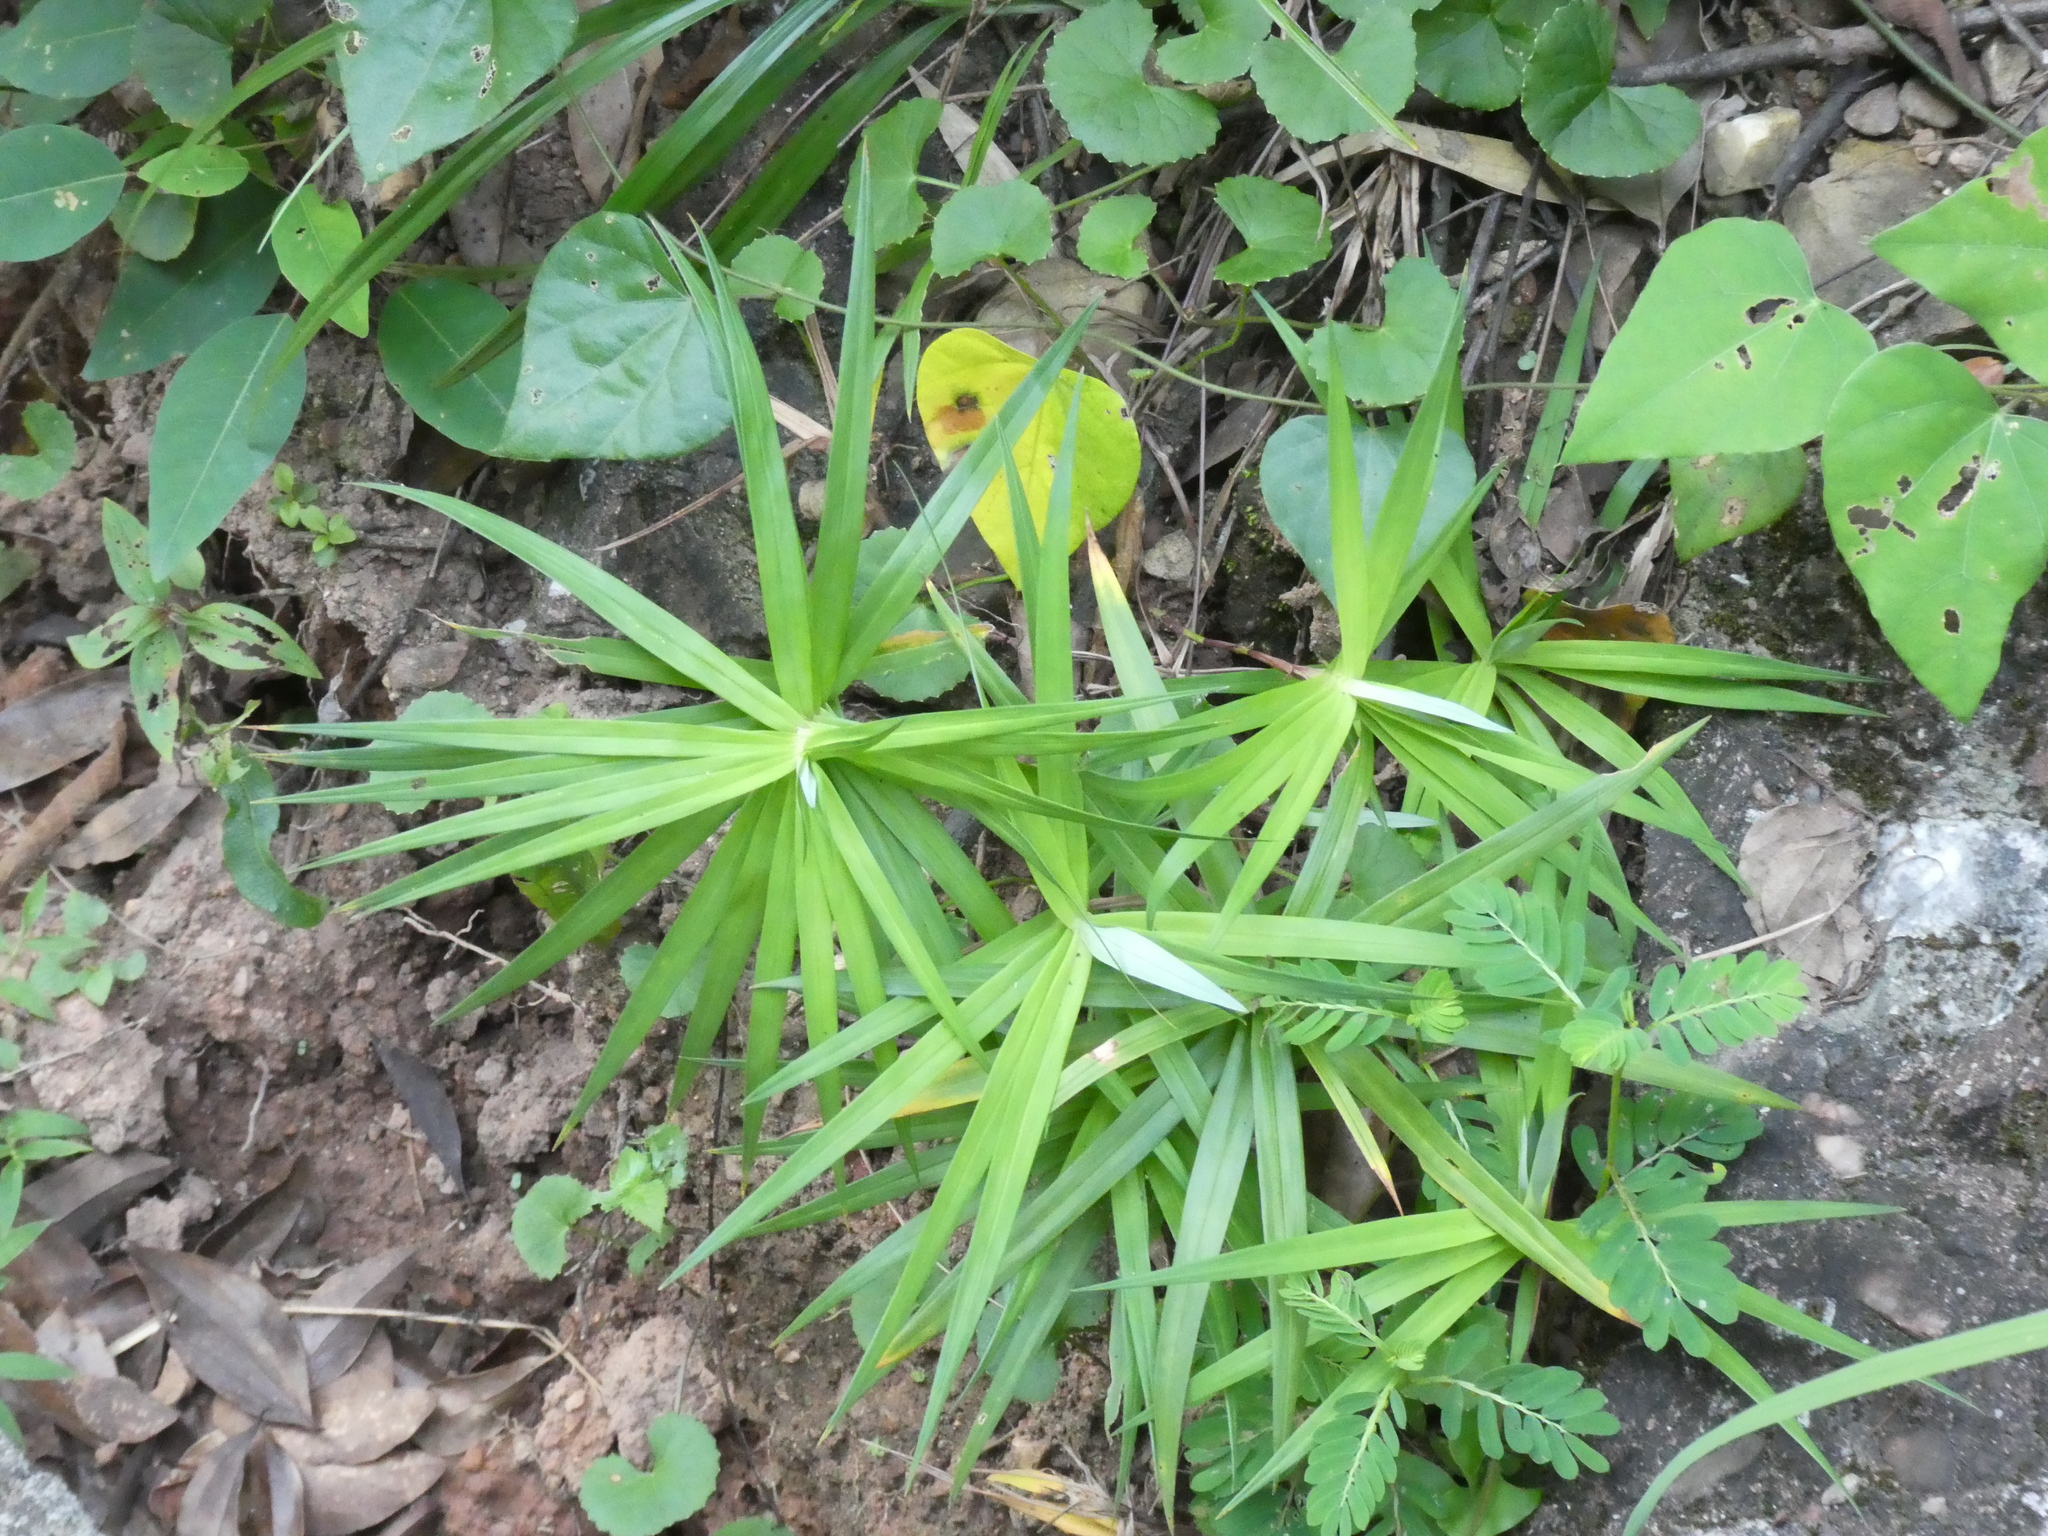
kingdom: Plantae
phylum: Tracheophyta
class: Liliopsida
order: Poales
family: Cyperaceae
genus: Carex
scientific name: Carex phyllocephala
